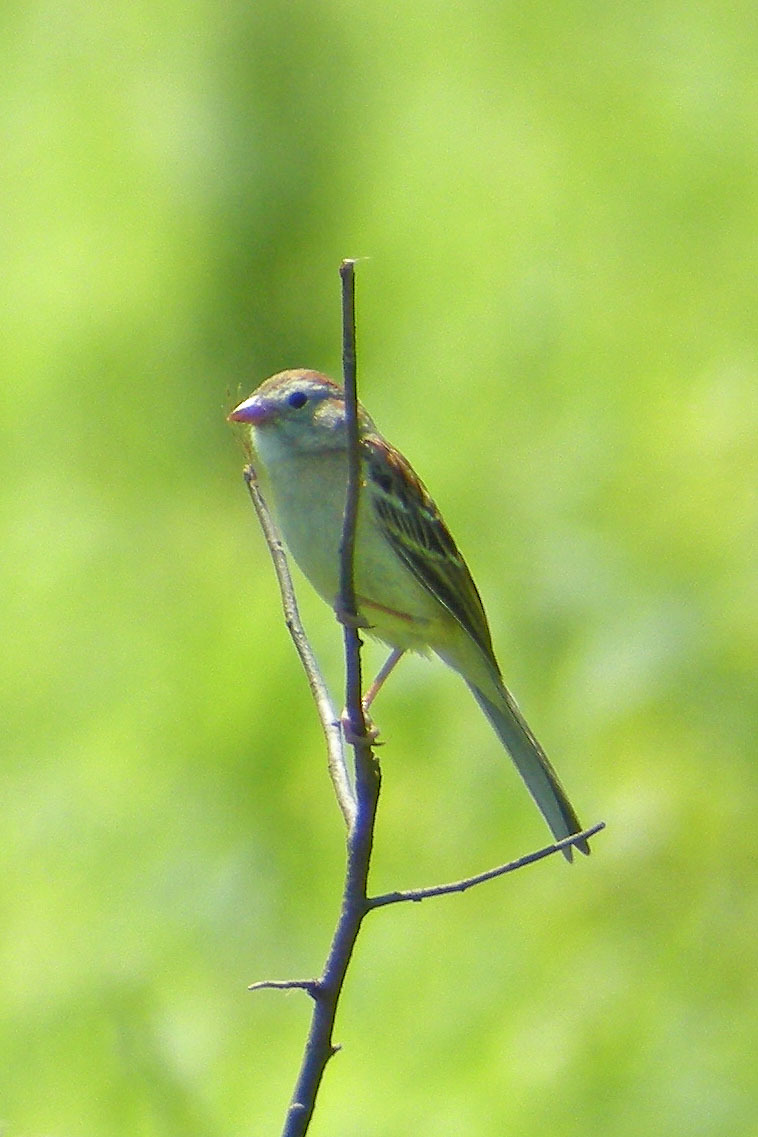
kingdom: Animalia
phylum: Chordata
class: Aves
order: Passeriformes
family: Passerellidae
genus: Spizella
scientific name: Spizella pusilla
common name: Field sparrow
